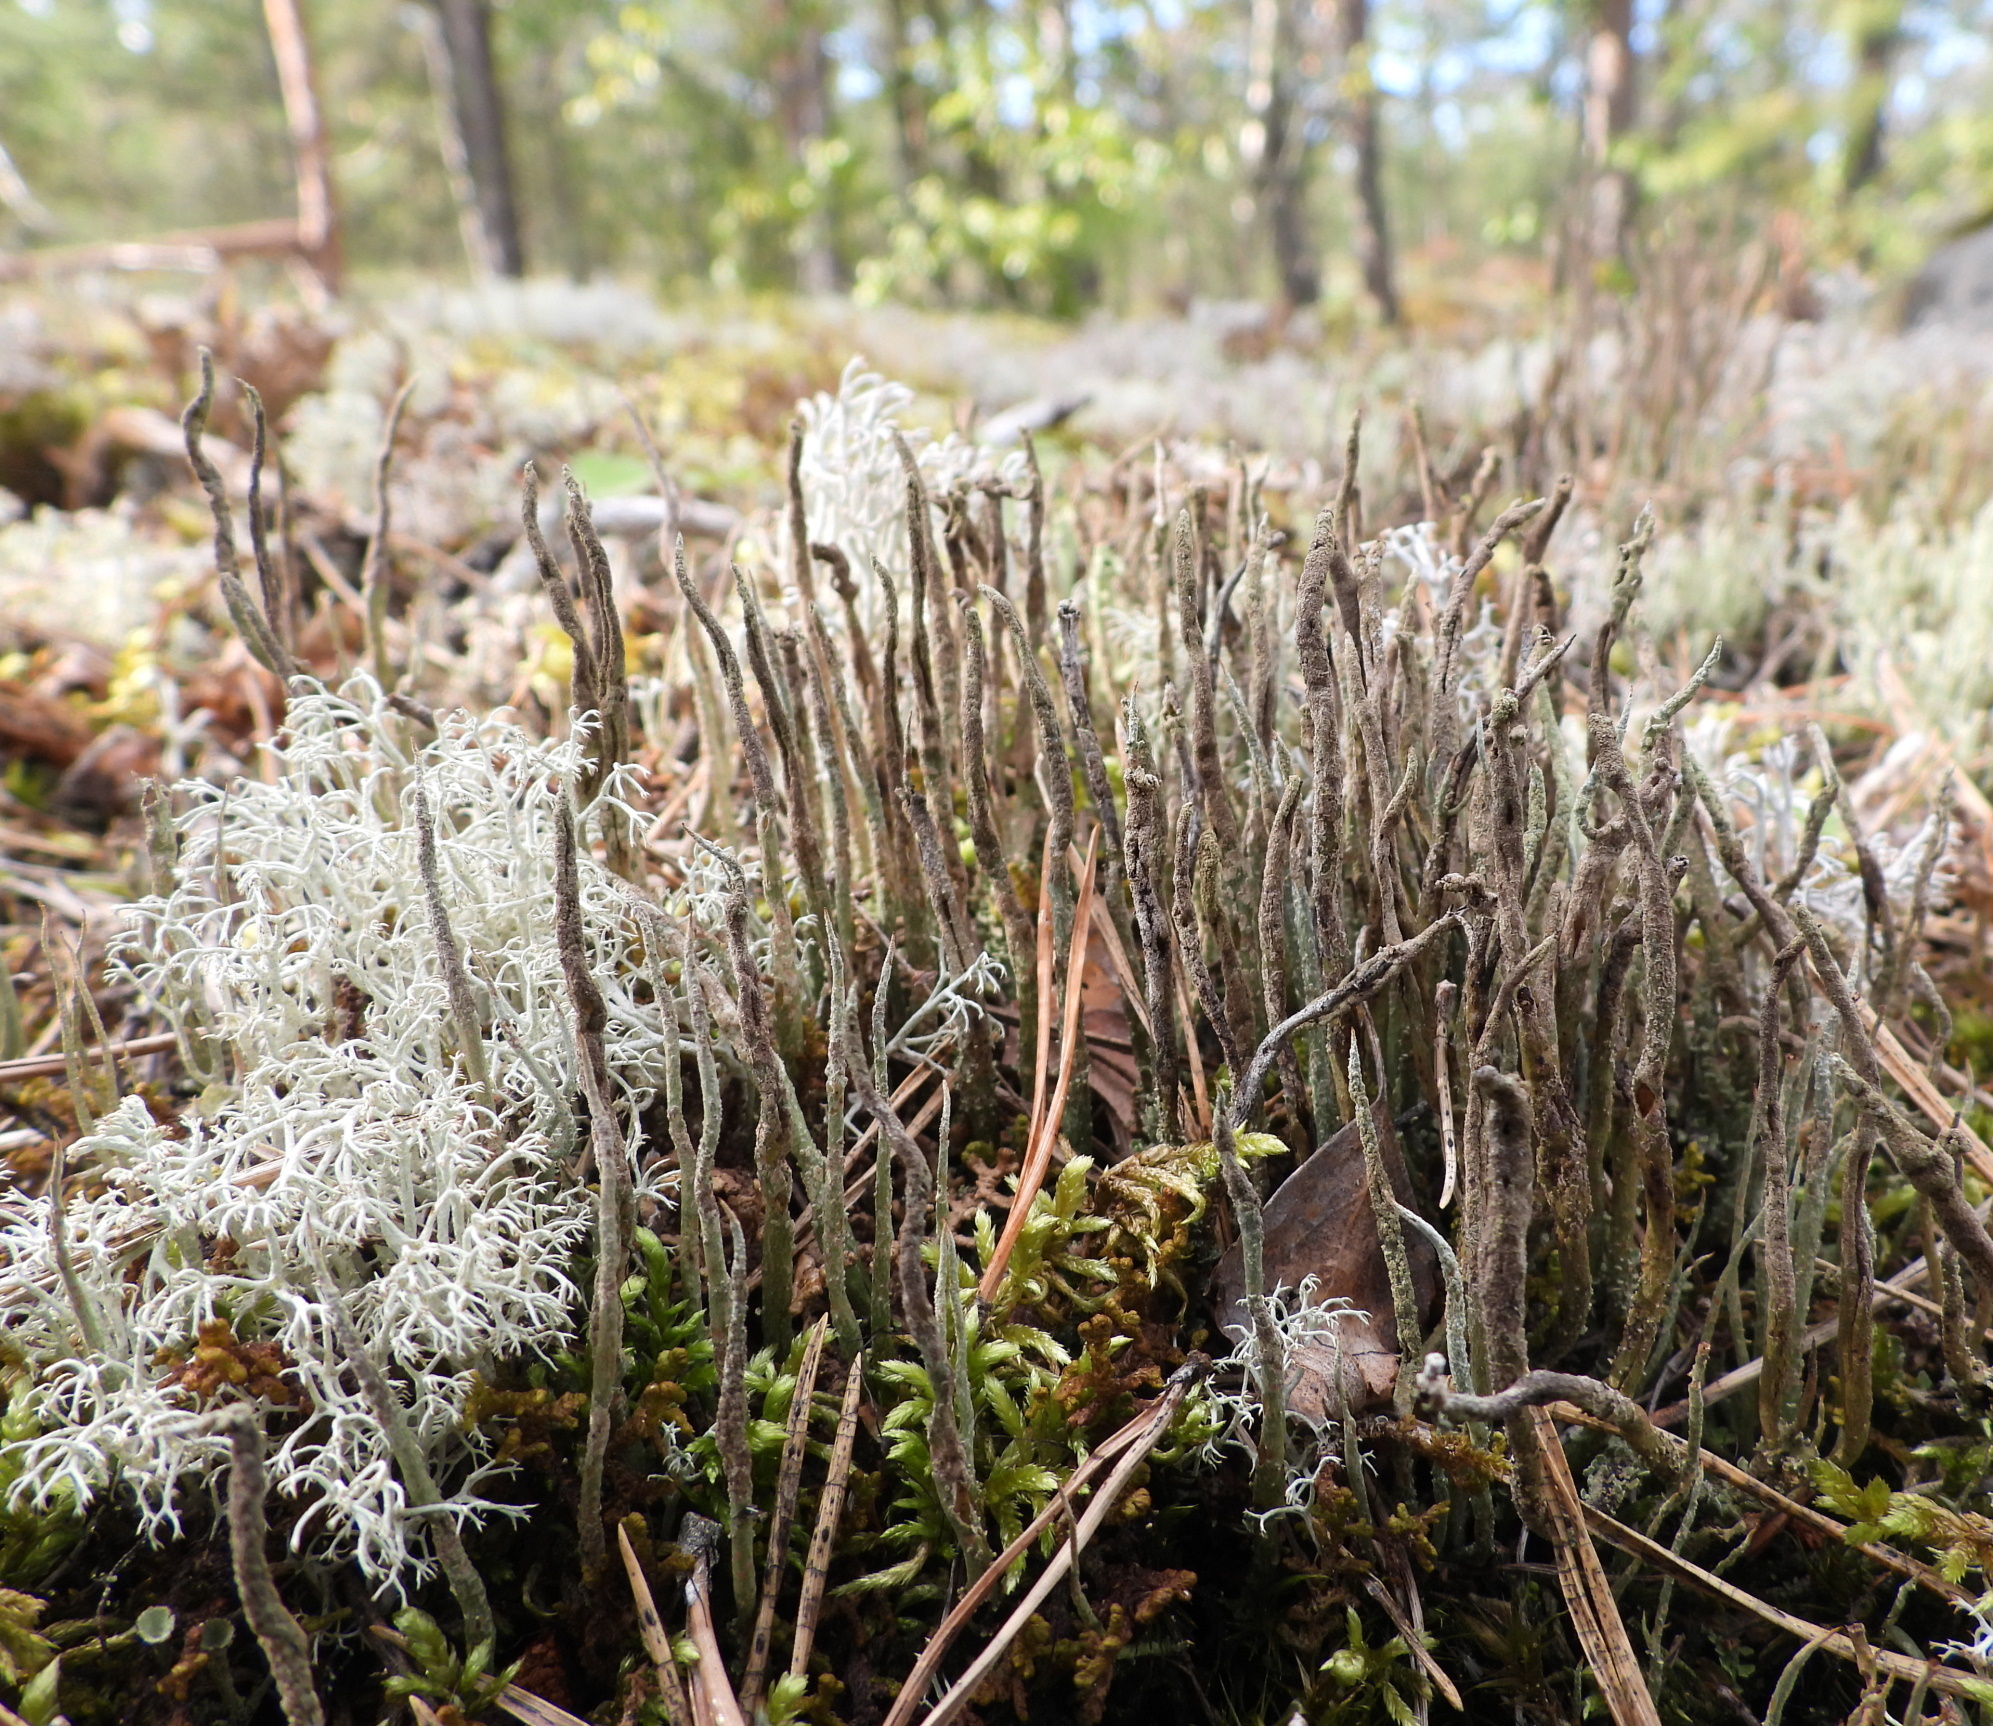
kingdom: Fungi
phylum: Ascomycota
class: Lecanoromycetes
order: Lecanorales
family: Cladoniaceae
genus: Cladonia
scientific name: Cladonia cornuta
